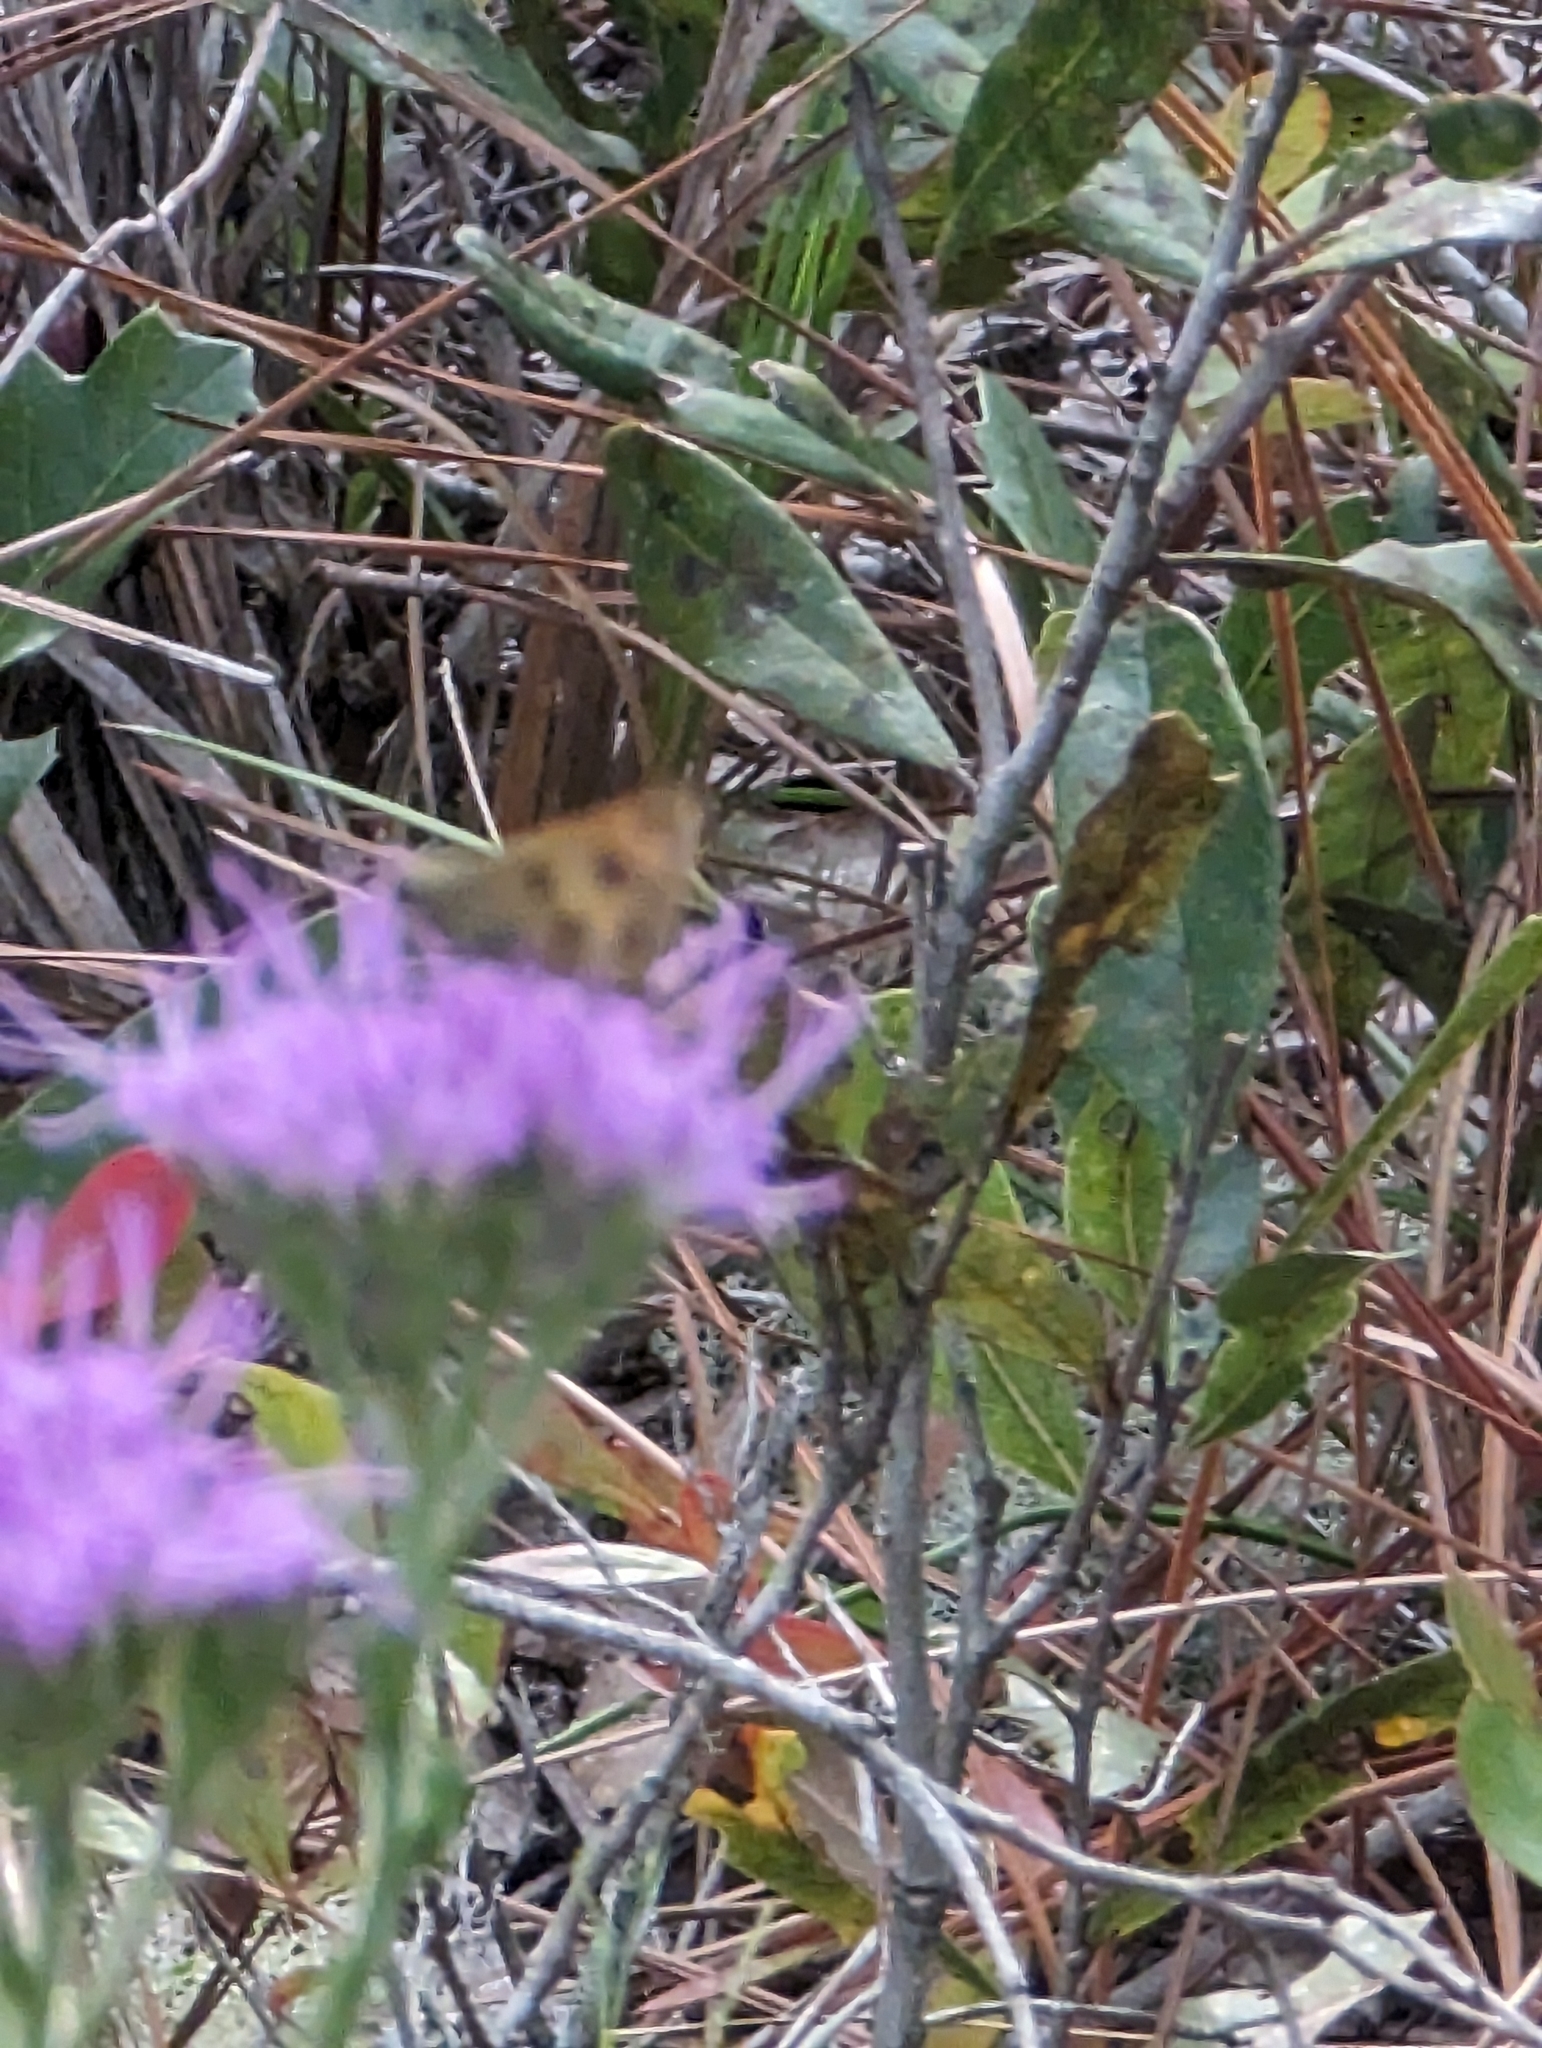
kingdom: Animalia
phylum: Arthropoda
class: Insecta
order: Lepidoptera
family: Hesperiidae
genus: Polites
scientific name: Polites vibex
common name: Whirlabout
